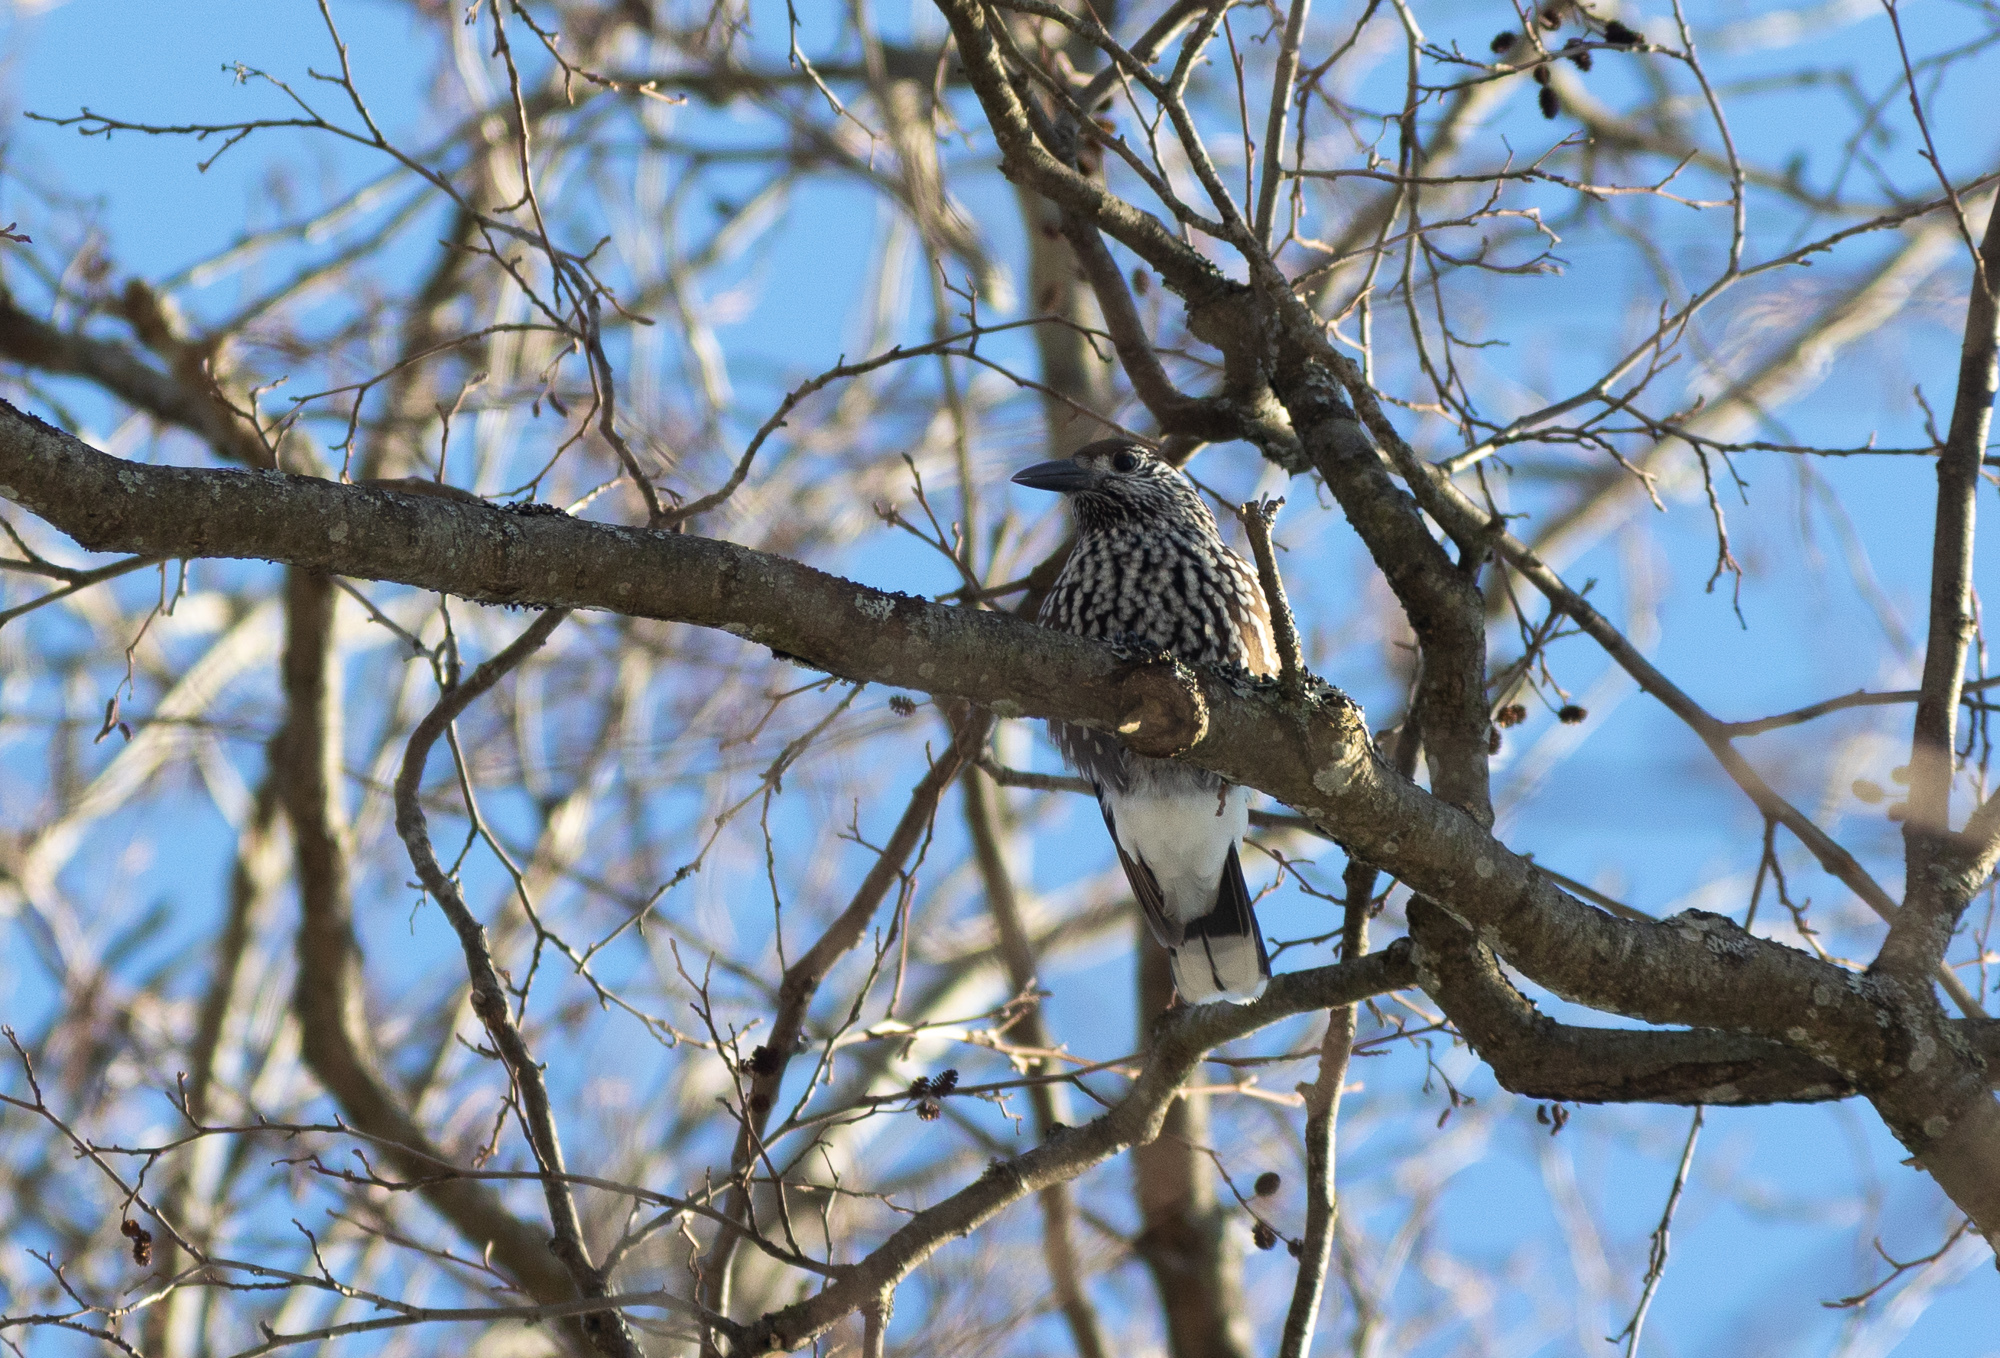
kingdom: Animalia
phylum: Chordata
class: Aves
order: Passeriformes
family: Corvidae
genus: Nucifraga
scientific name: Nucifraga caryocatactes
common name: Spotted nutcracker
